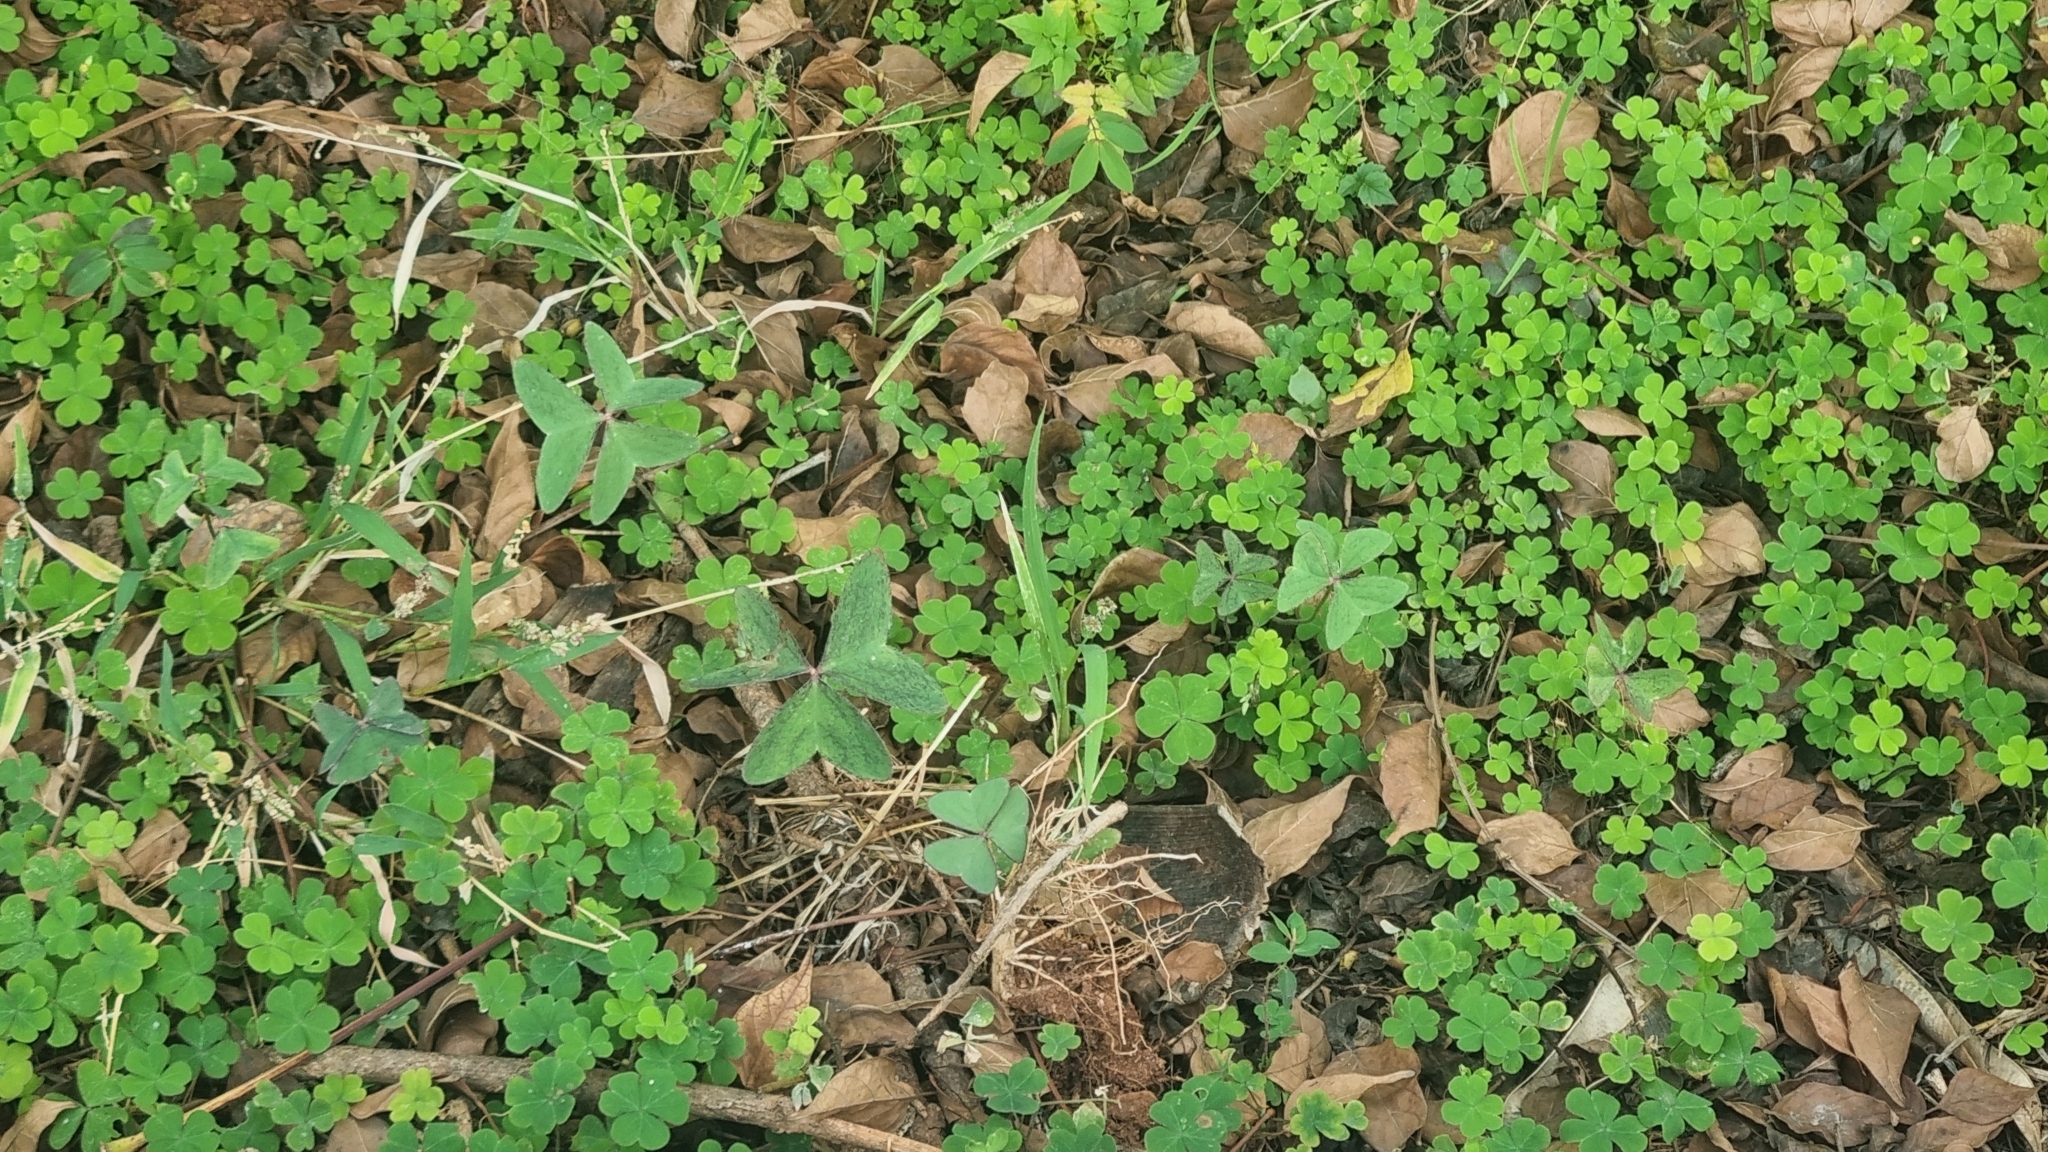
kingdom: Plantae
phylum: Tracheophyta
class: Magnoliopsida
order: Oxalidales
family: Oxalidaceae
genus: Oxalis
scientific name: Oxalis corniculata
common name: Procumbent yellow-sorrel
